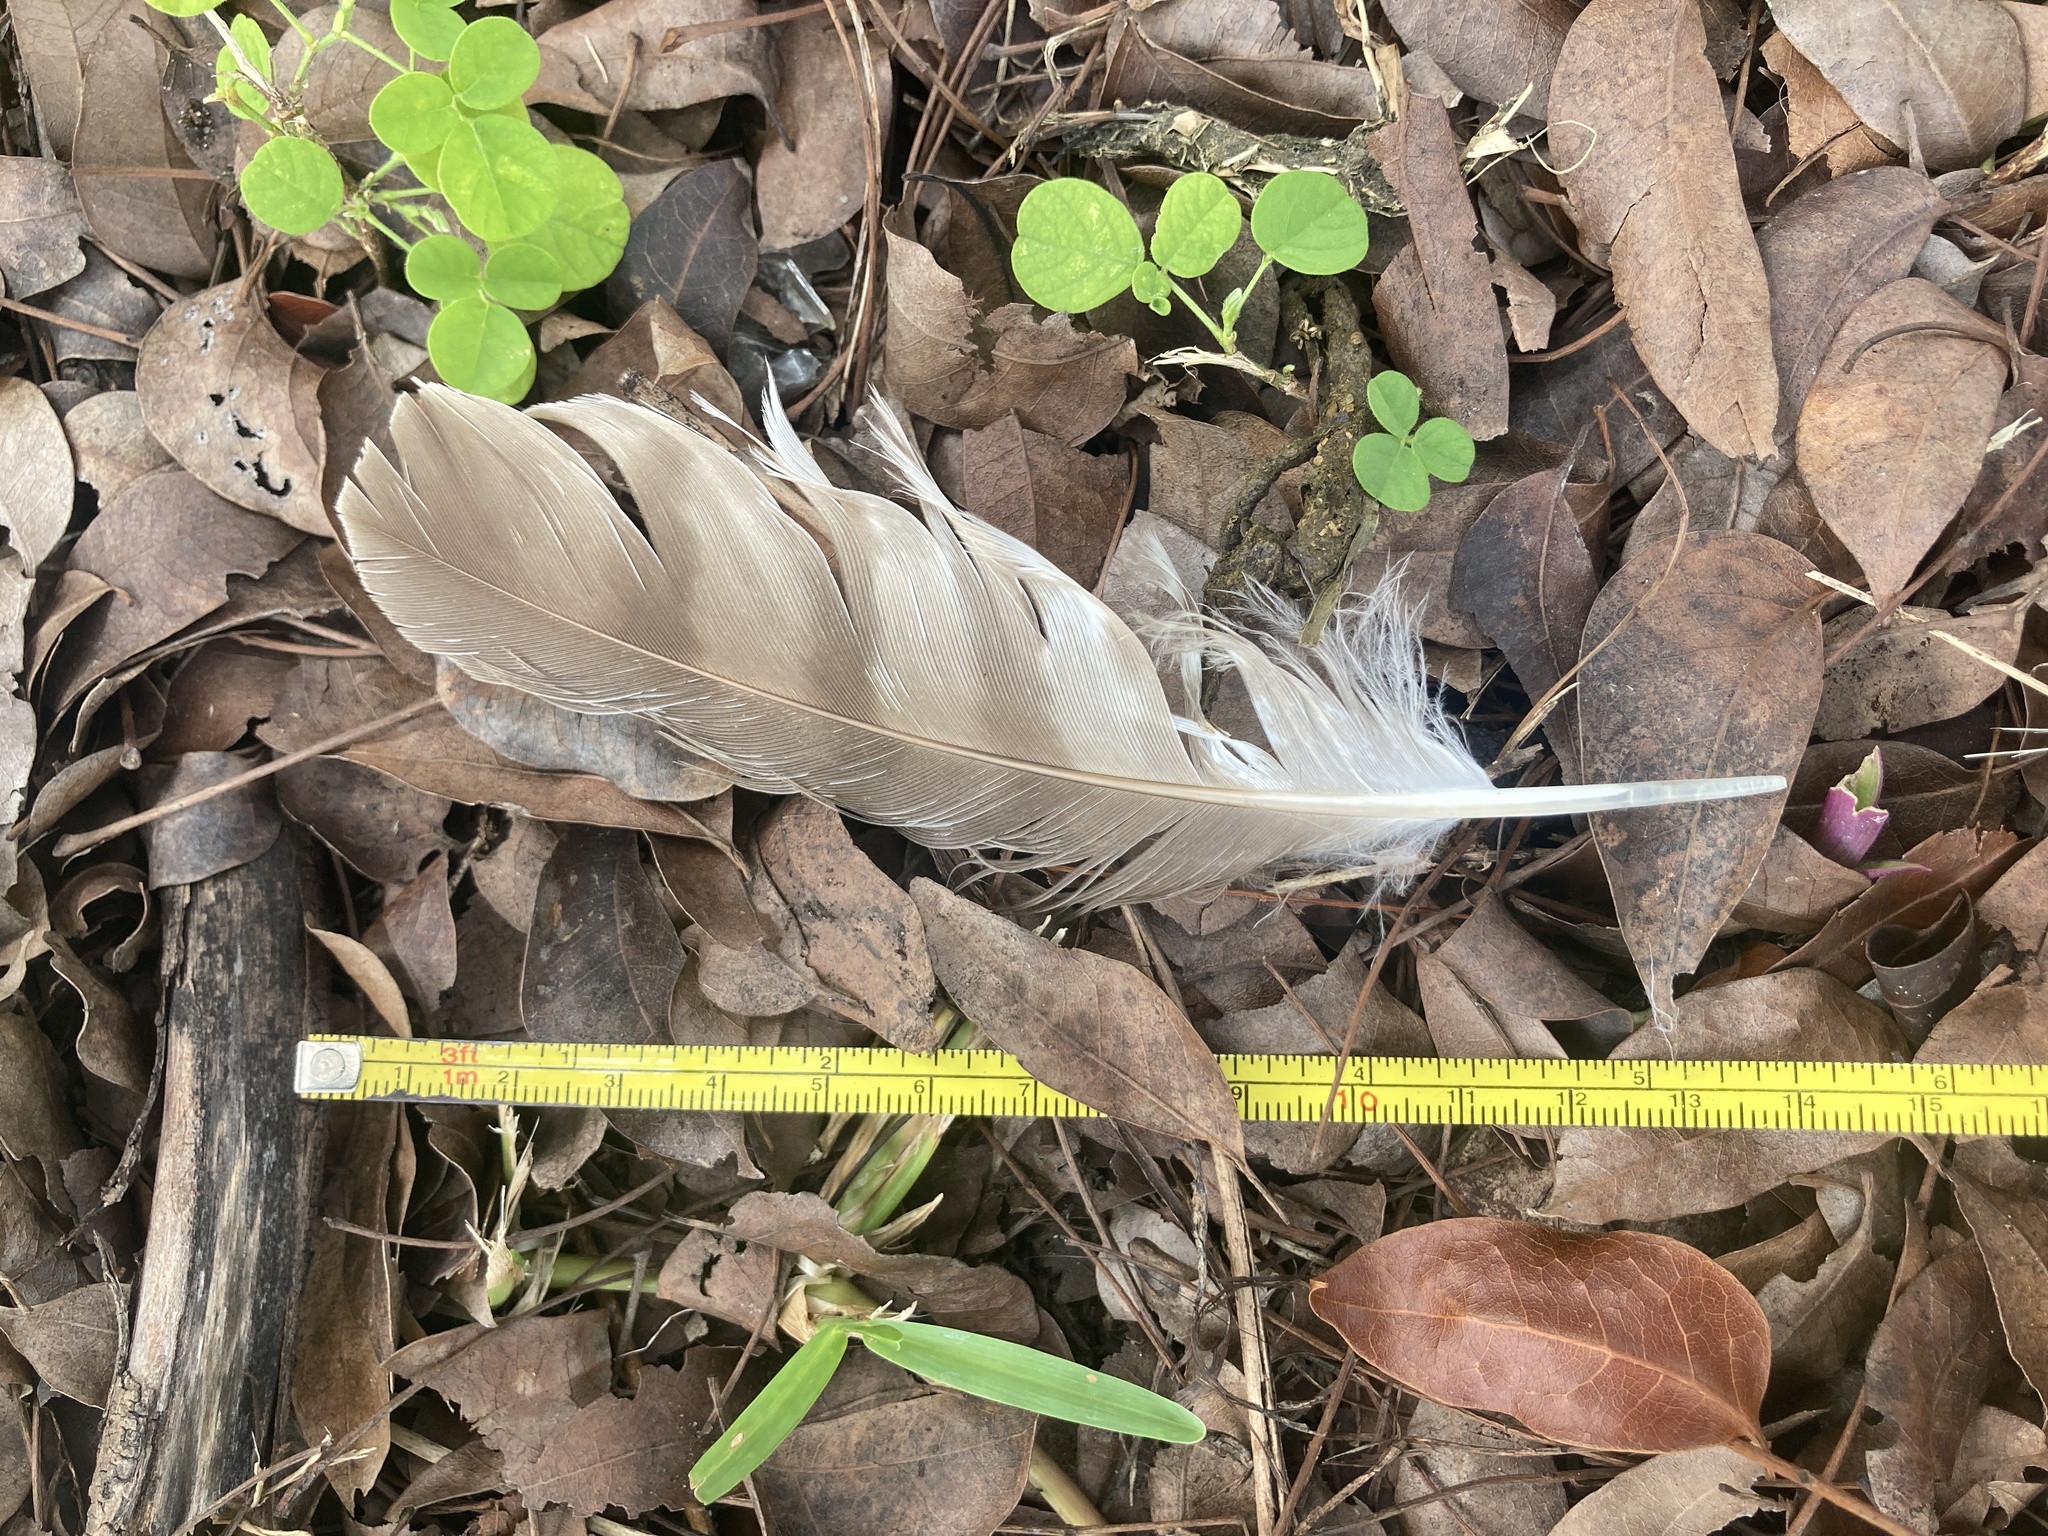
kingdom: Animalia
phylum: Chordata
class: Aves
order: Accipitriformes
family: Accipitridae
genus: Accipiter
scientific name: Accipiter cooperii
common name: Cooper's hawk
